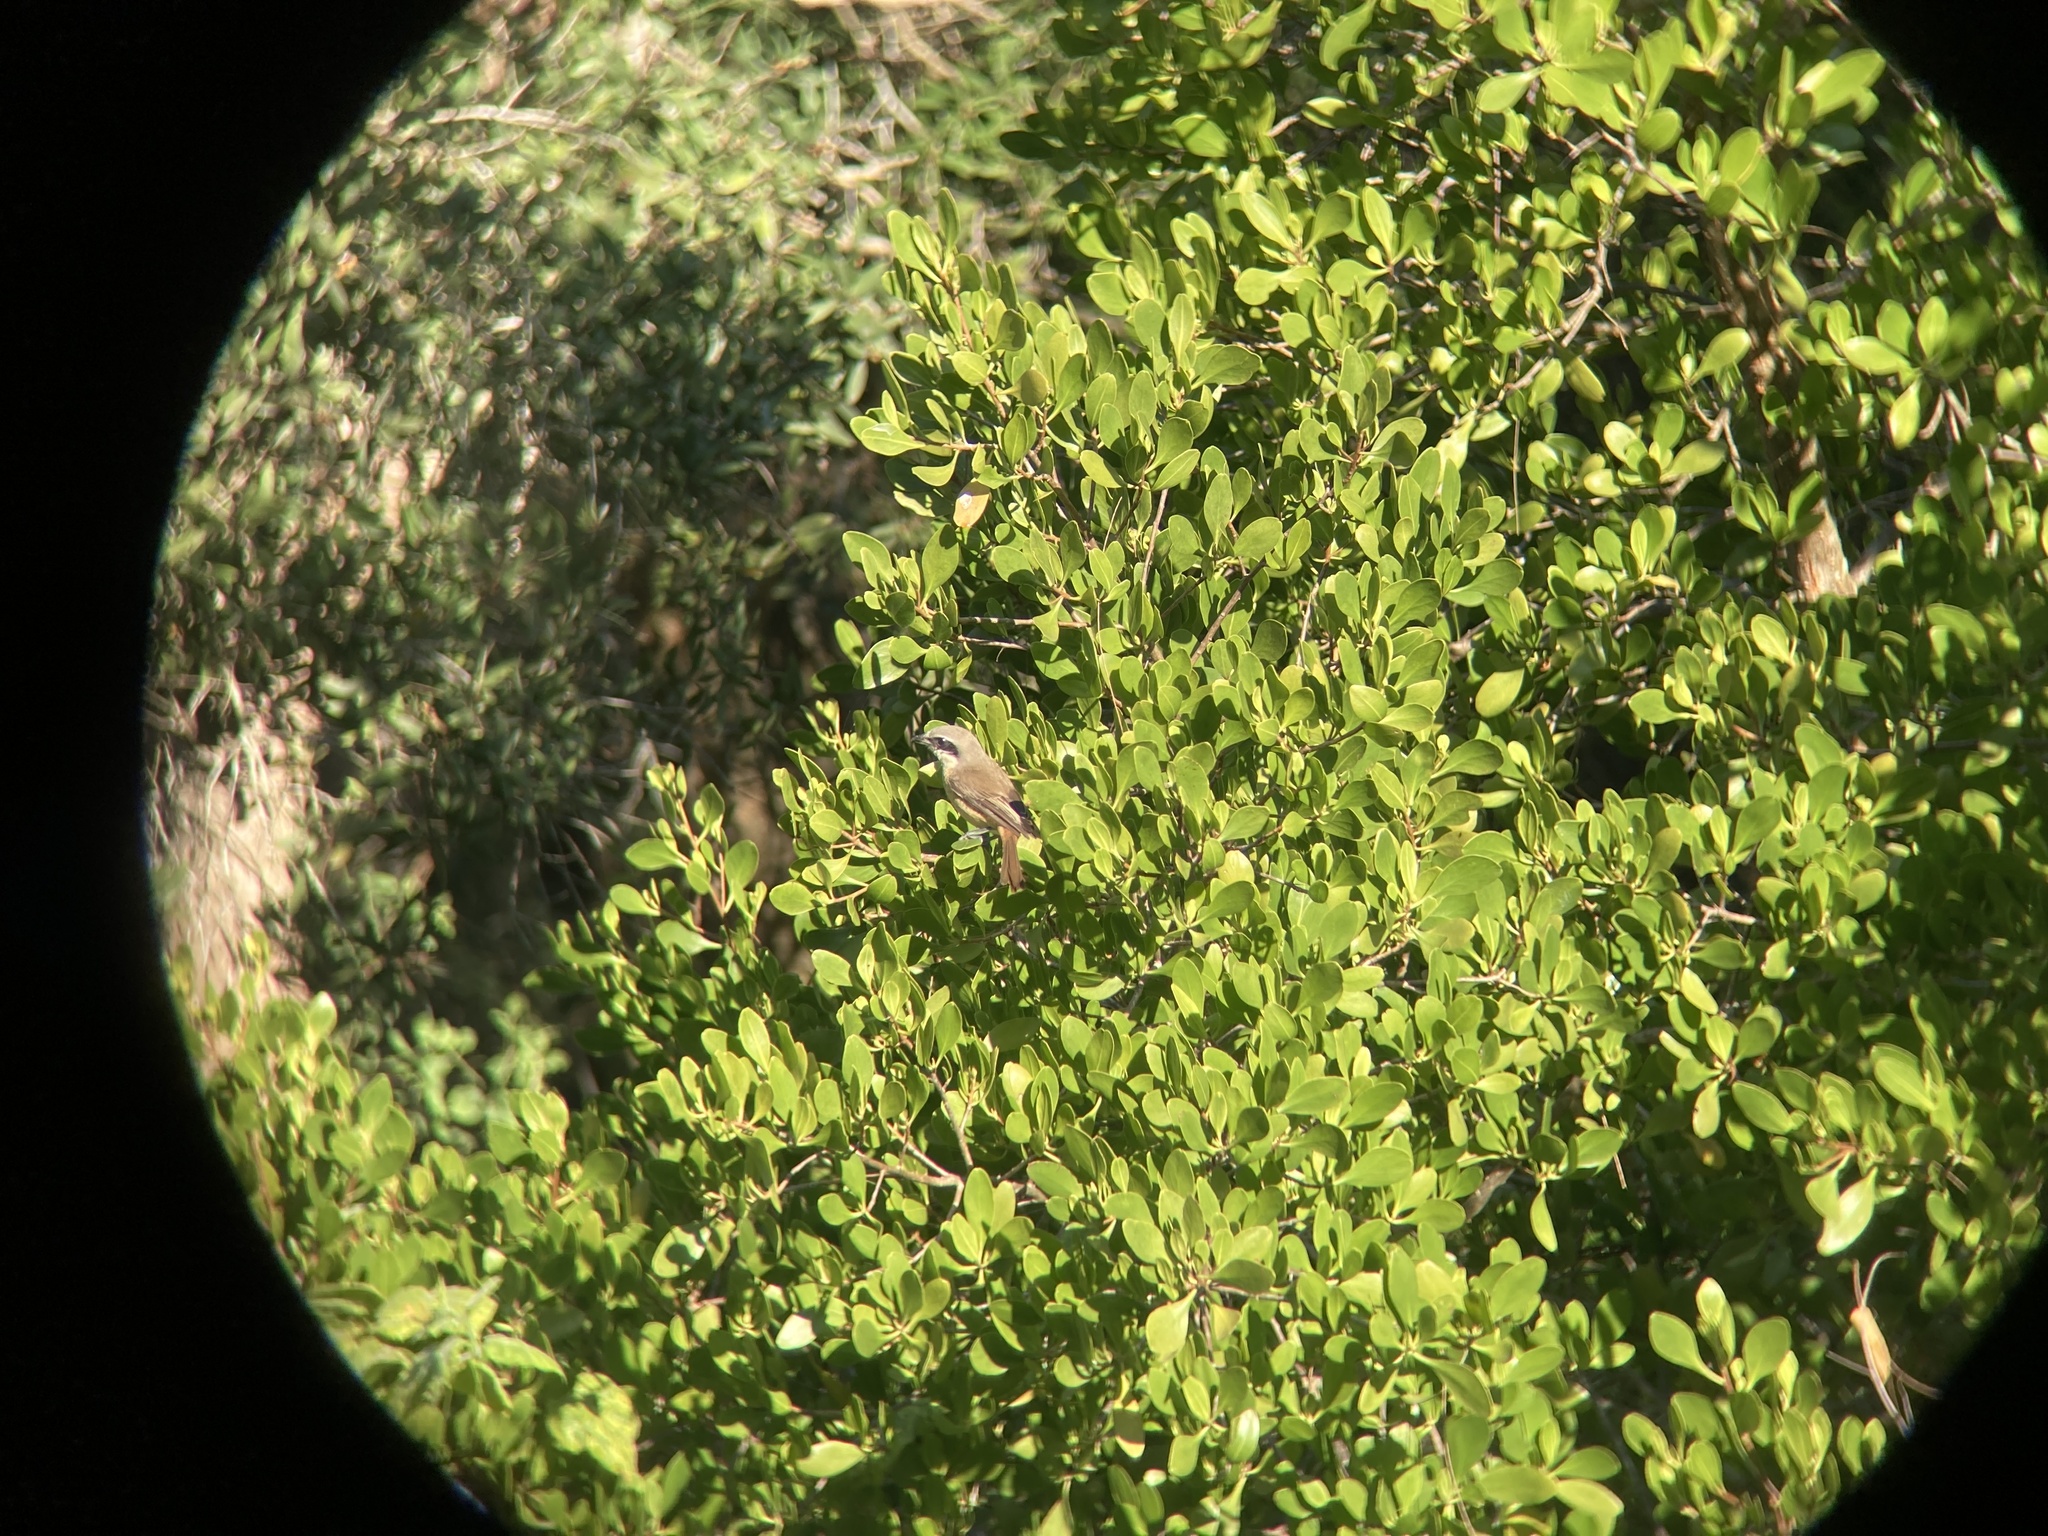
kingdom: Animalia
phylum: Chordata
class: Aves
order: Passeriformes
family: Laniidae
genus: Lanius
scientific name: Lanius cristatus
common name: Brown shrike
